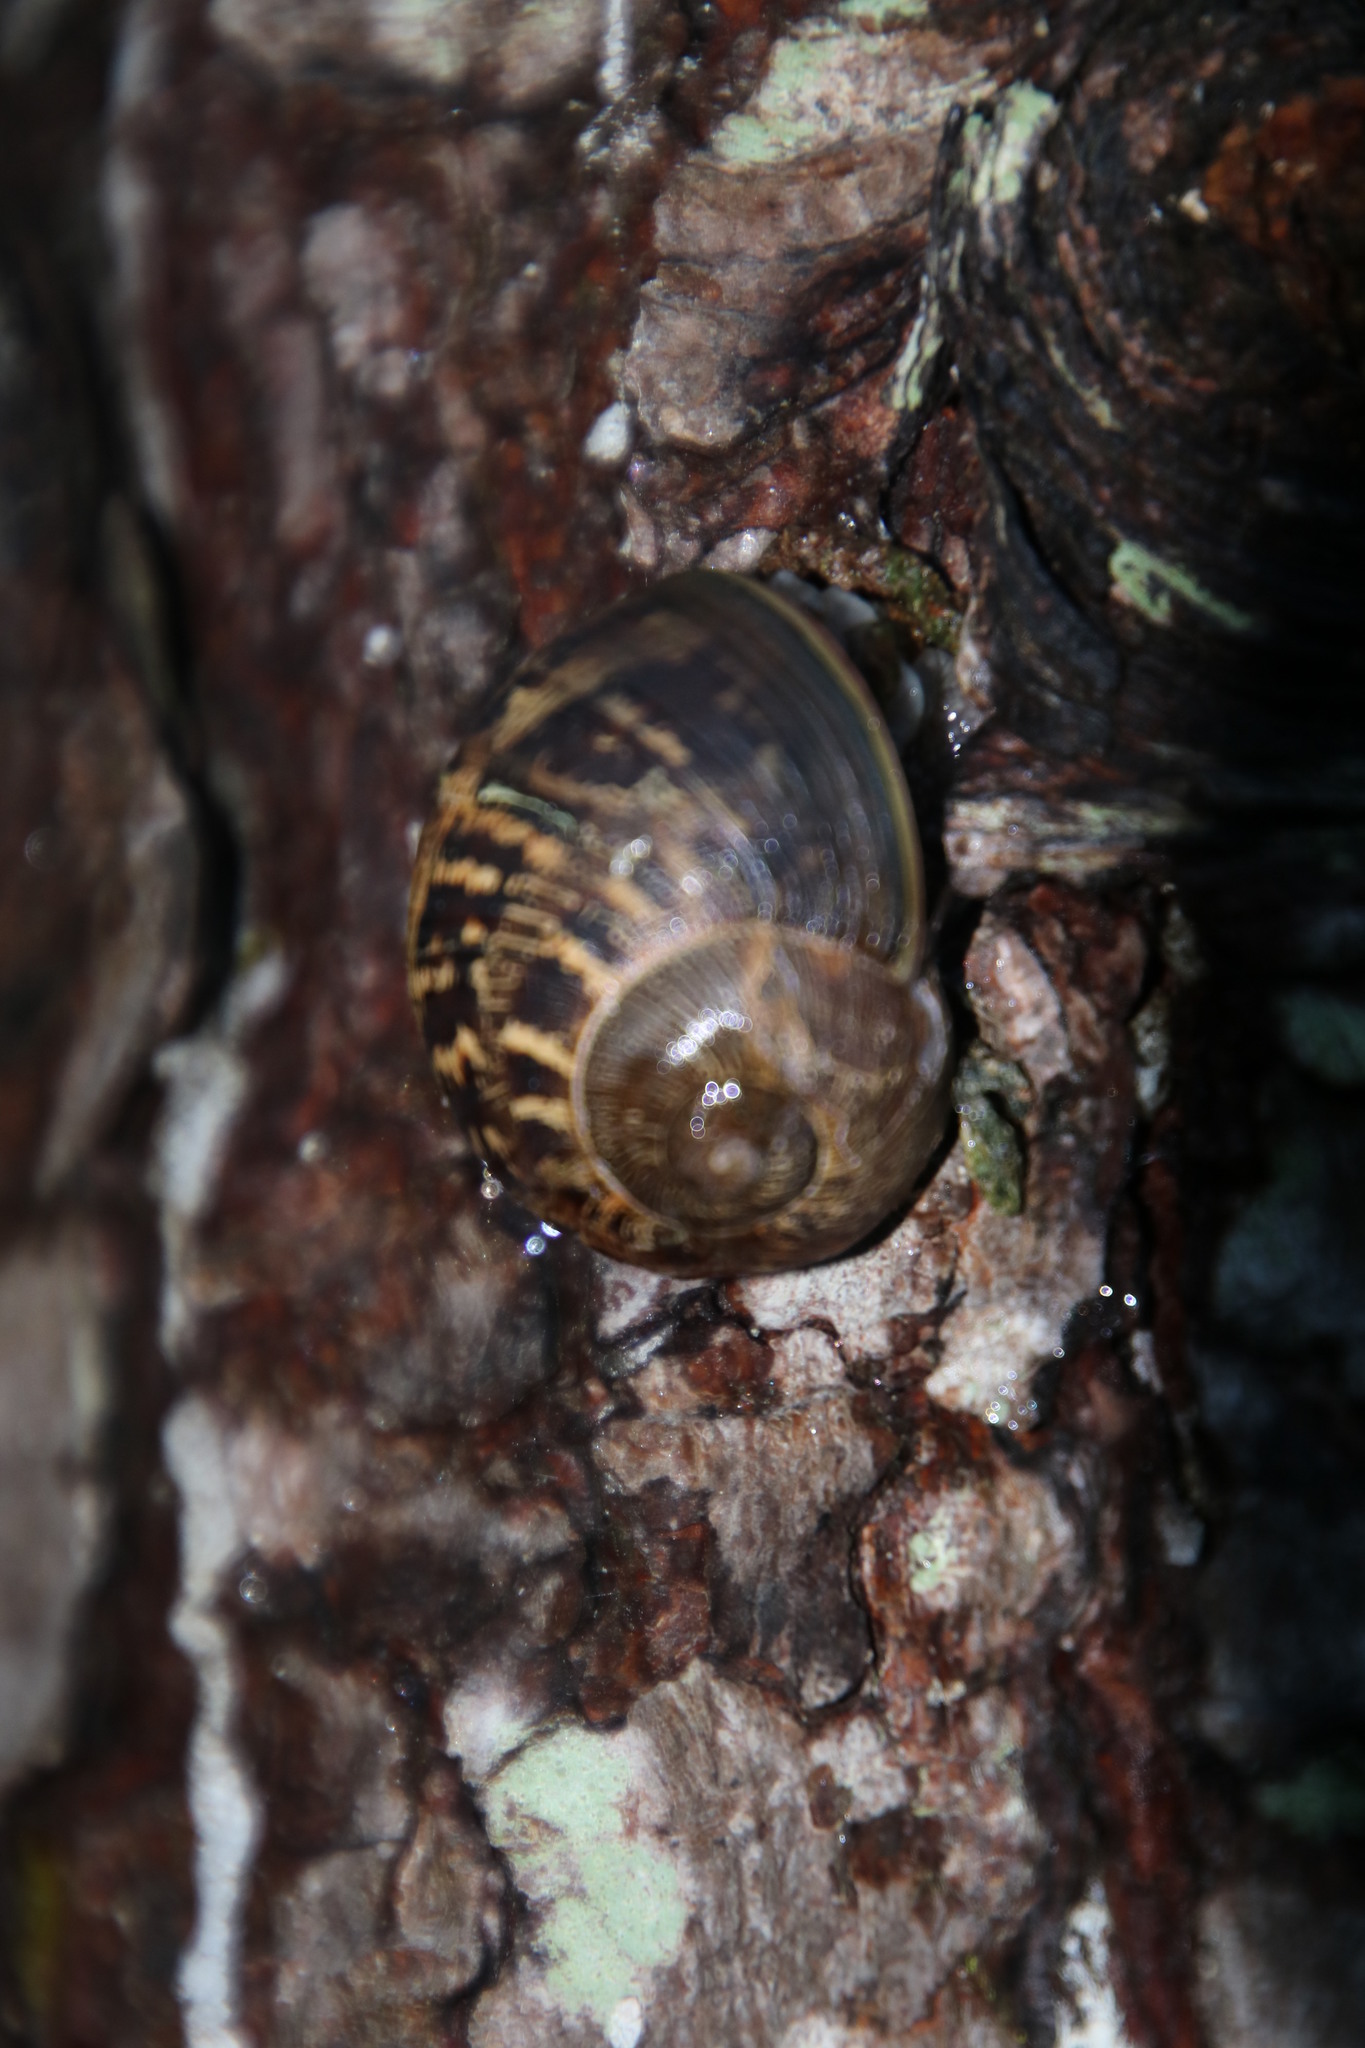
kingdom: Animalia
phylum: Mollusca
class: Gastropoda
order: Stylommatophora
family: Helicidae
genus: Cornu
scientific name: Cornu aspersum
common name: Brown garden snail
